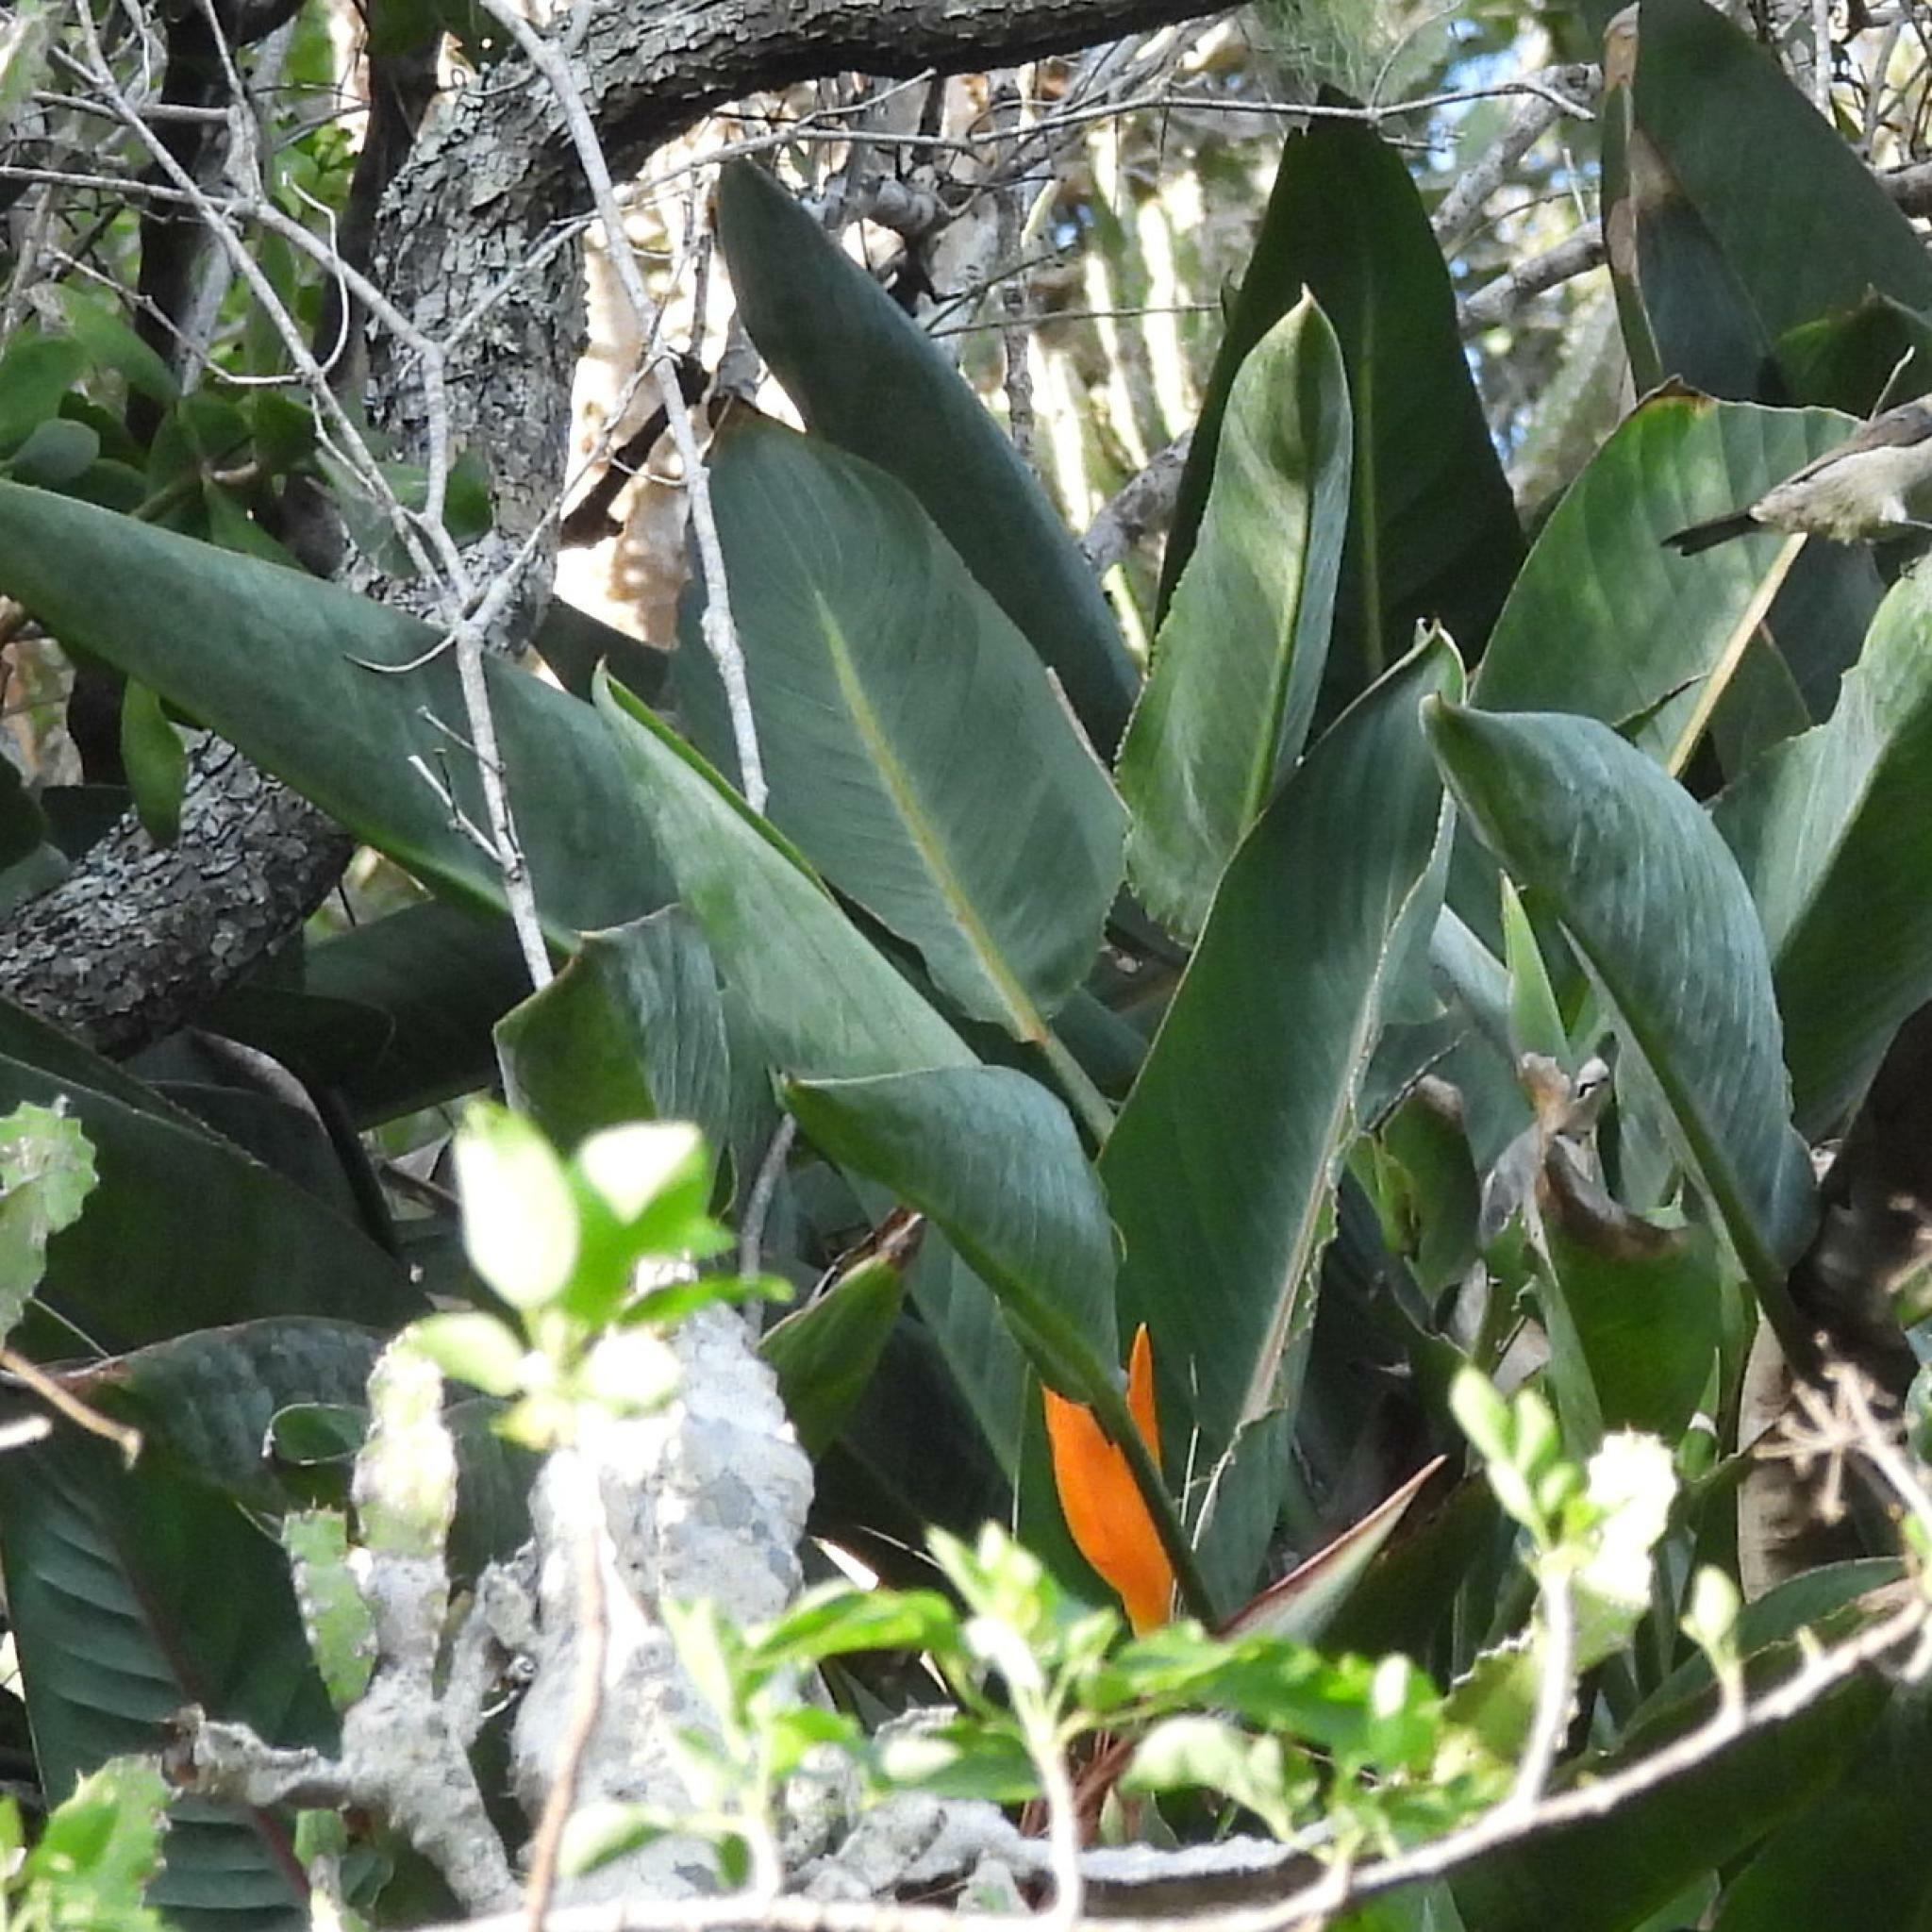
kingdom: Plantae
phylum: Tracheophyta
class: Liliopsida
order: Zingiberales
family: Strelitziaceae
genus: Strelitzia
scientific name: Strelitzia reginae
